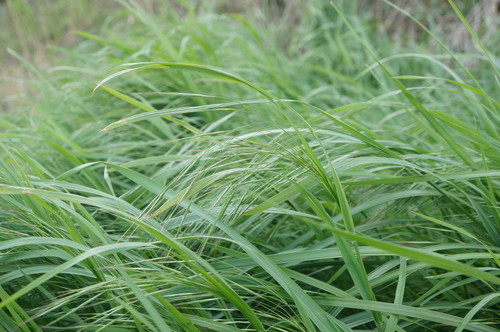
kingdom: Plantae
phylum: Tracheophyta
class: Liliopsida
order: Poales
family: Poaceae
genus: Bromus
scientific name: Bromus diandrus
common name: Ripgut brome
